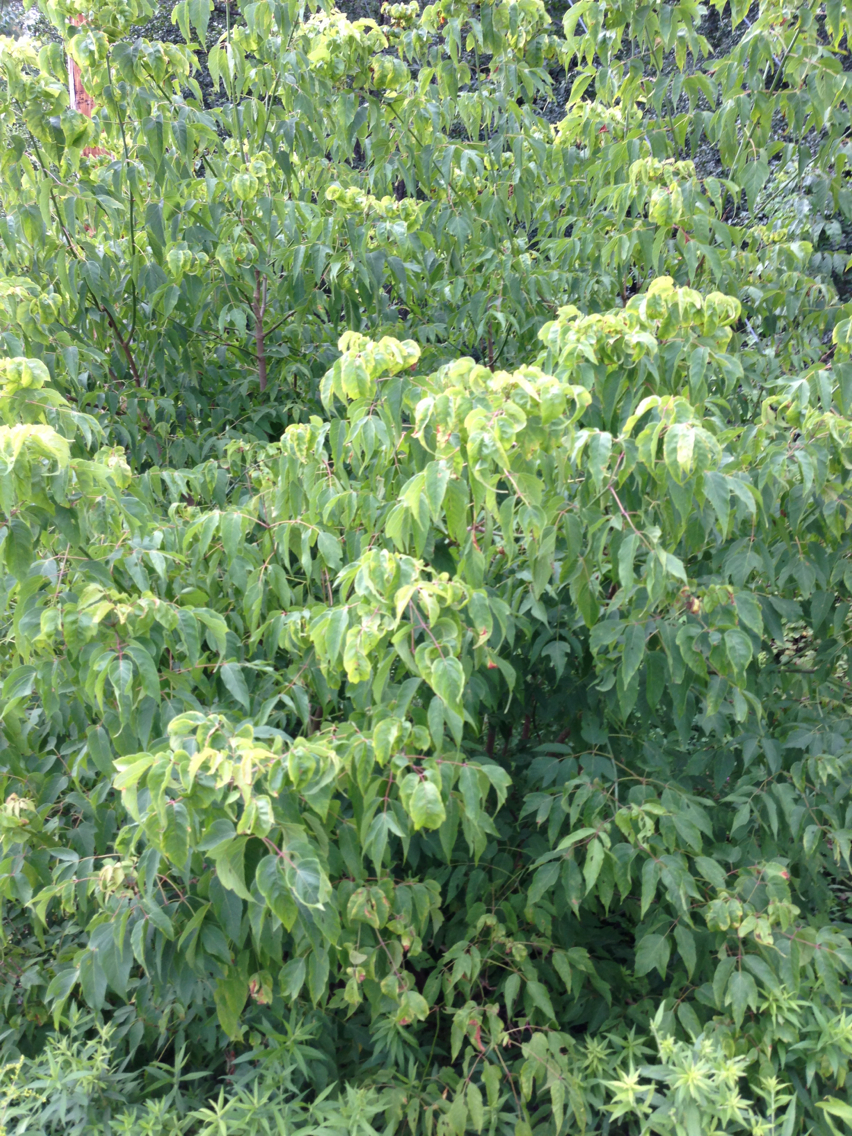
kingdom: Plantae
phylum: Tracheophyta
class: Magnoliopsida
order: Sapindales
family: Sapindaceae
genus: Acer
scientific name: Acer negundo
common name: Ashleaf maple
